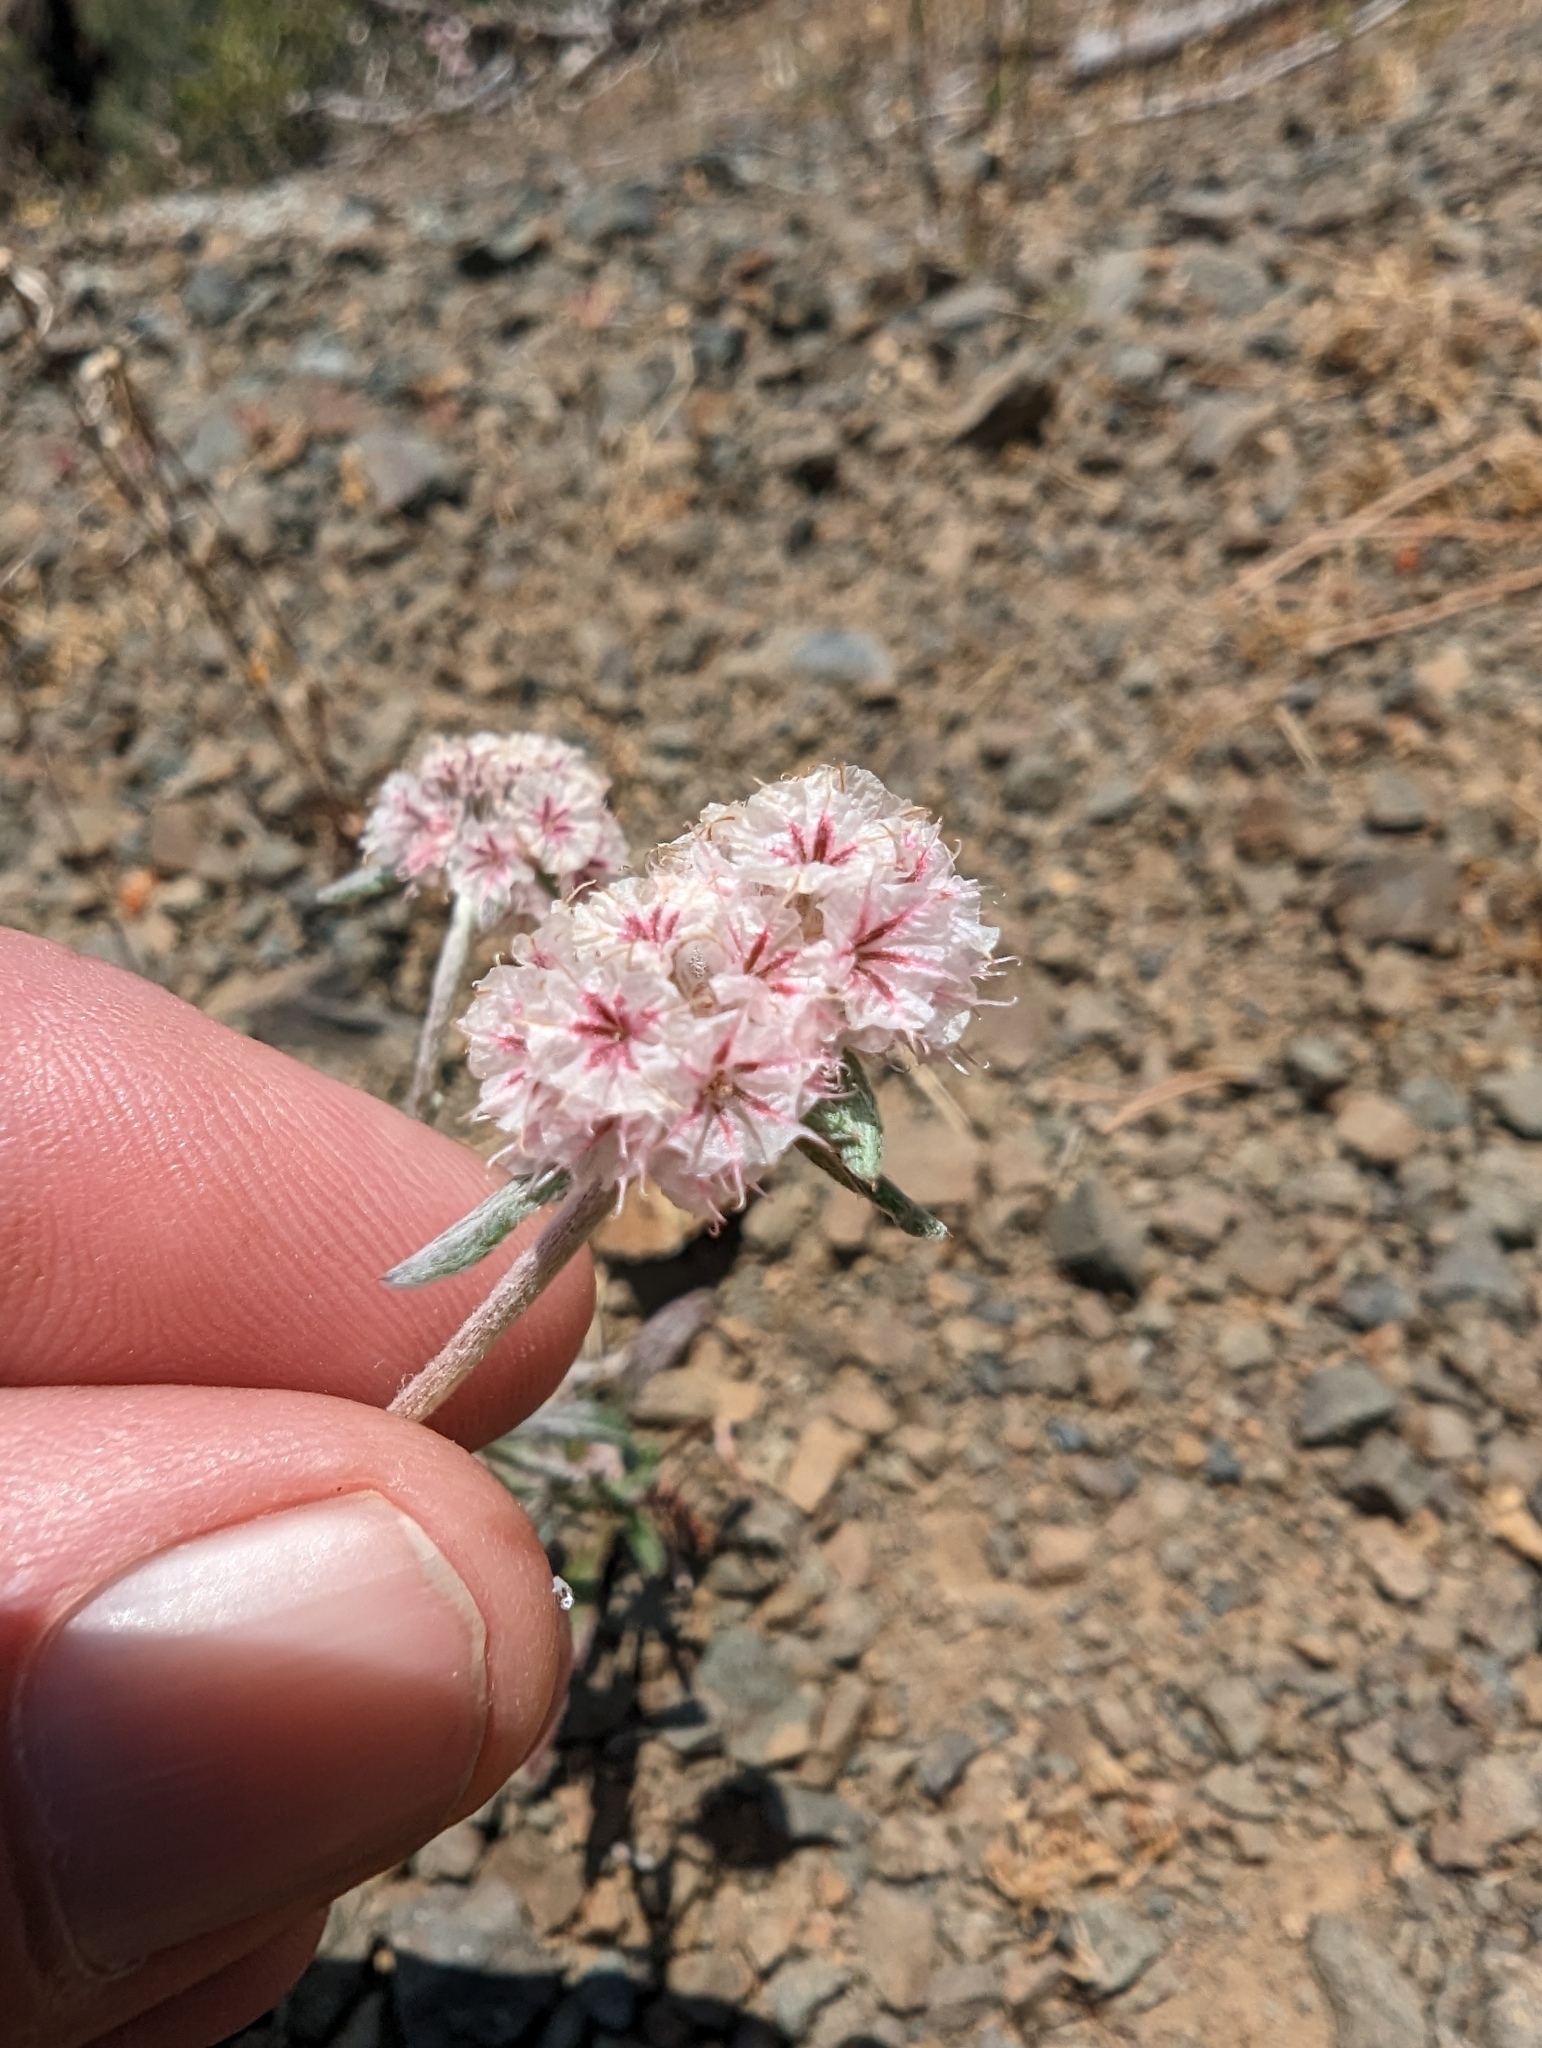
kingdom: Plantae
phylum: Tracheophyta
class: Magnoliopsida
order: Caryophyllales
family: Polygonaceae
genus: Chorizanthe
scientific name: Chorizanthe membranacea
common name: Pink spineflower
